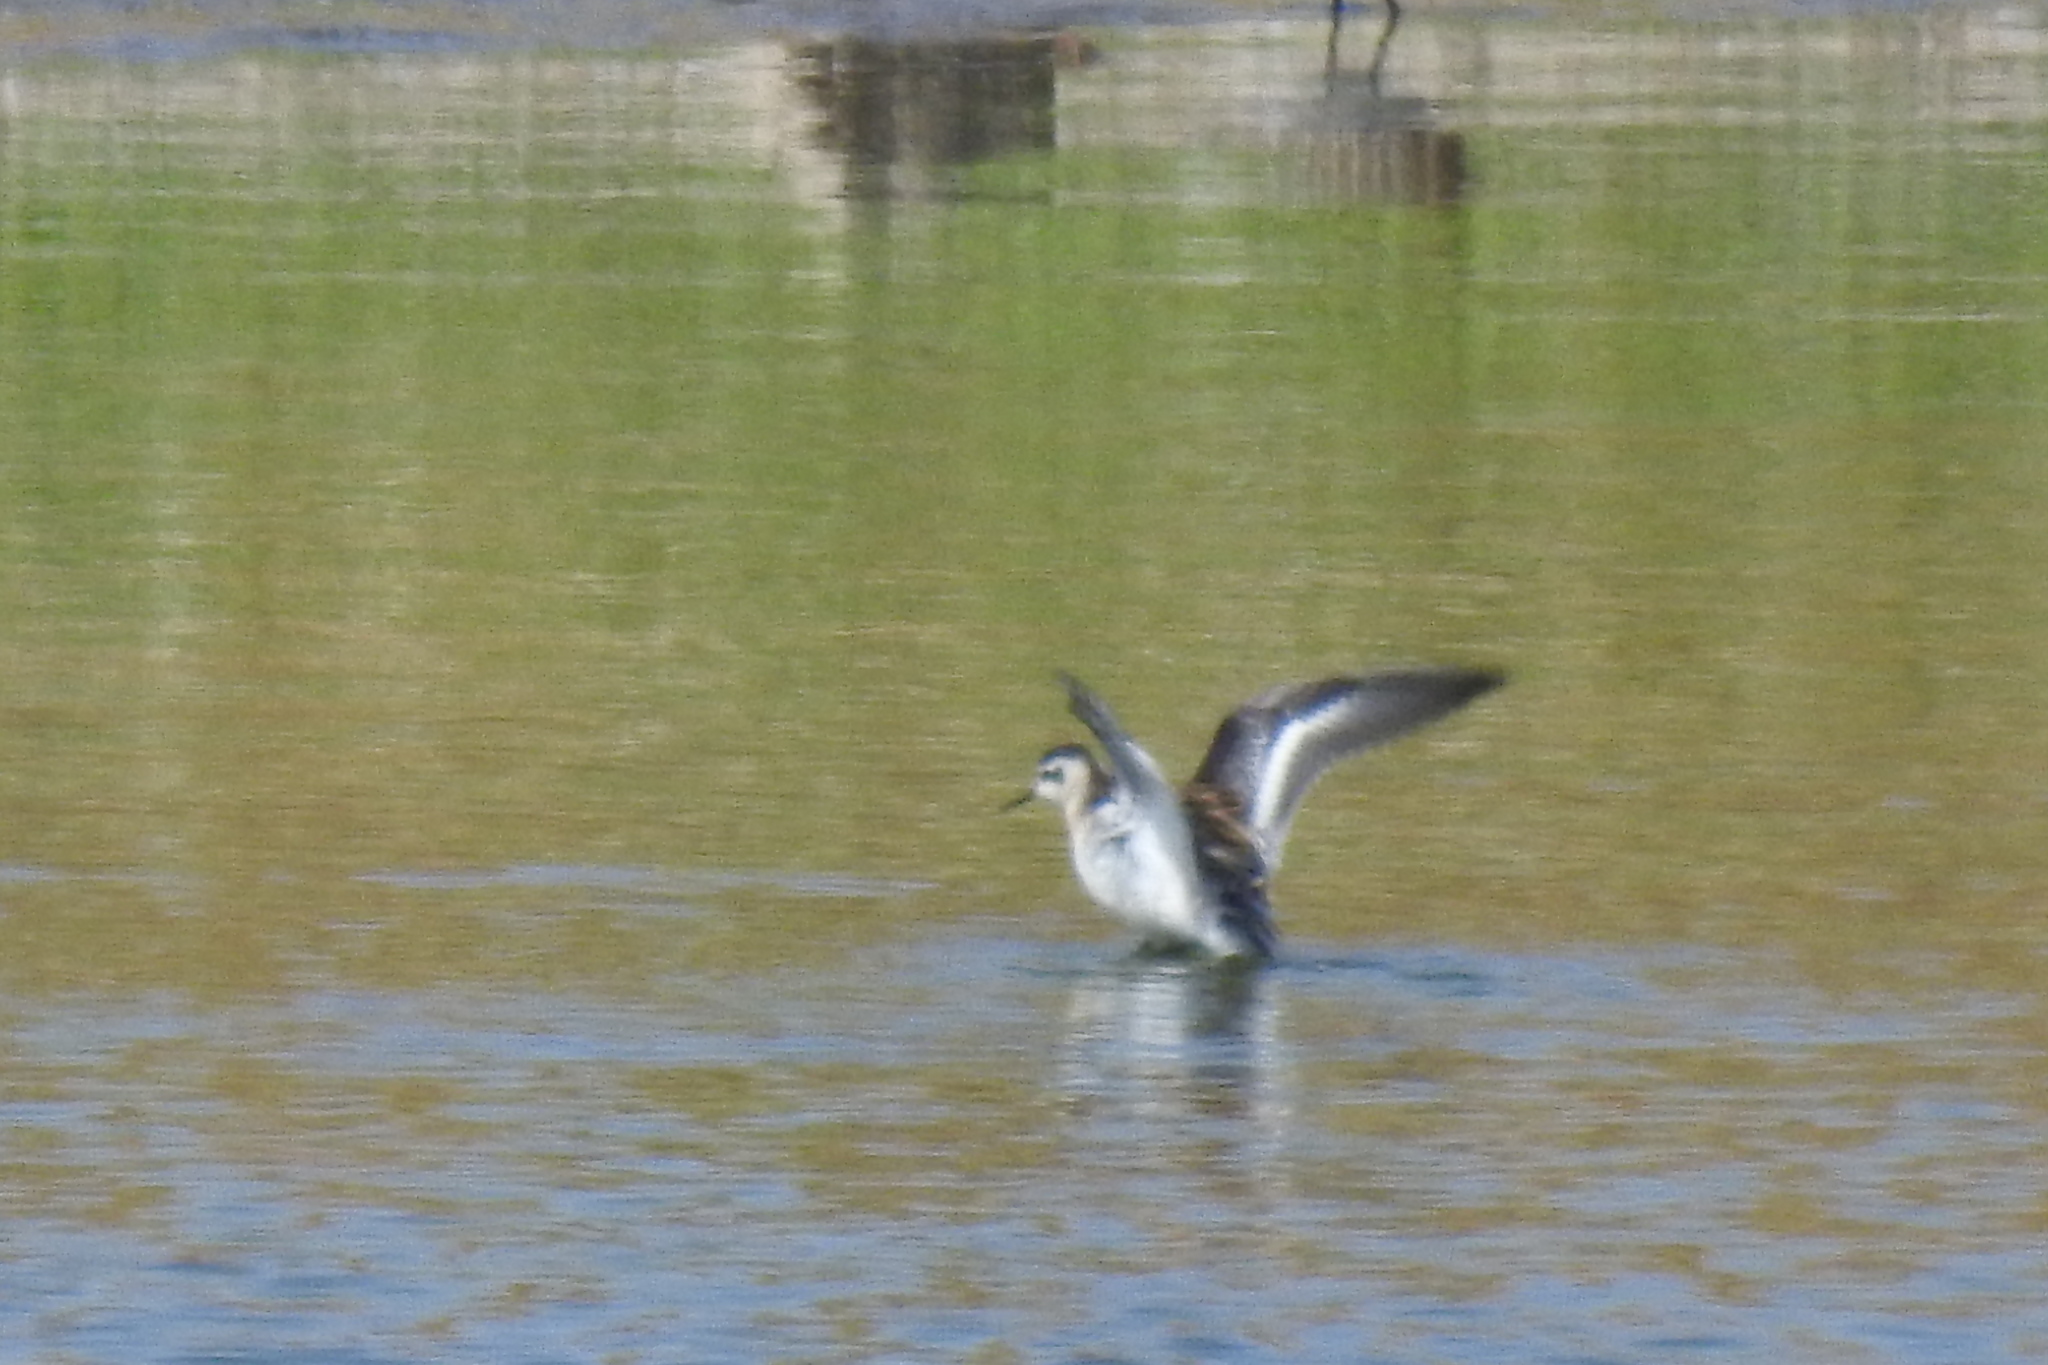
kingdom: Animalia
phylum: Chordata
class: Aves
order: Charadriiformes
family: Scolopacidae
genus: Phalaropus
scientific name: Phalaropus lobatus
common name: Red-necked phalarope
